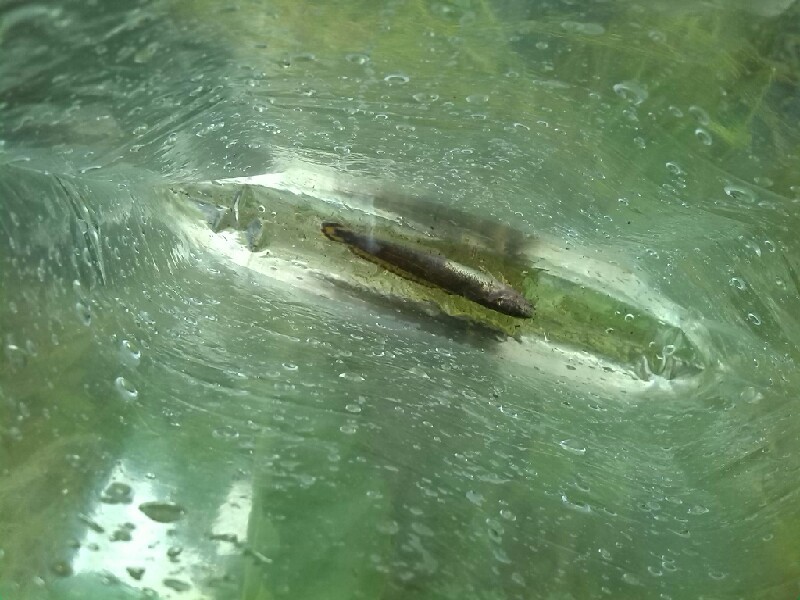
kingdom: Animalia
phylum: Chordata
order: Gadiformes
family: Lotidae
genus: Lota
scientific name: Lota lota
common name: Burbot
